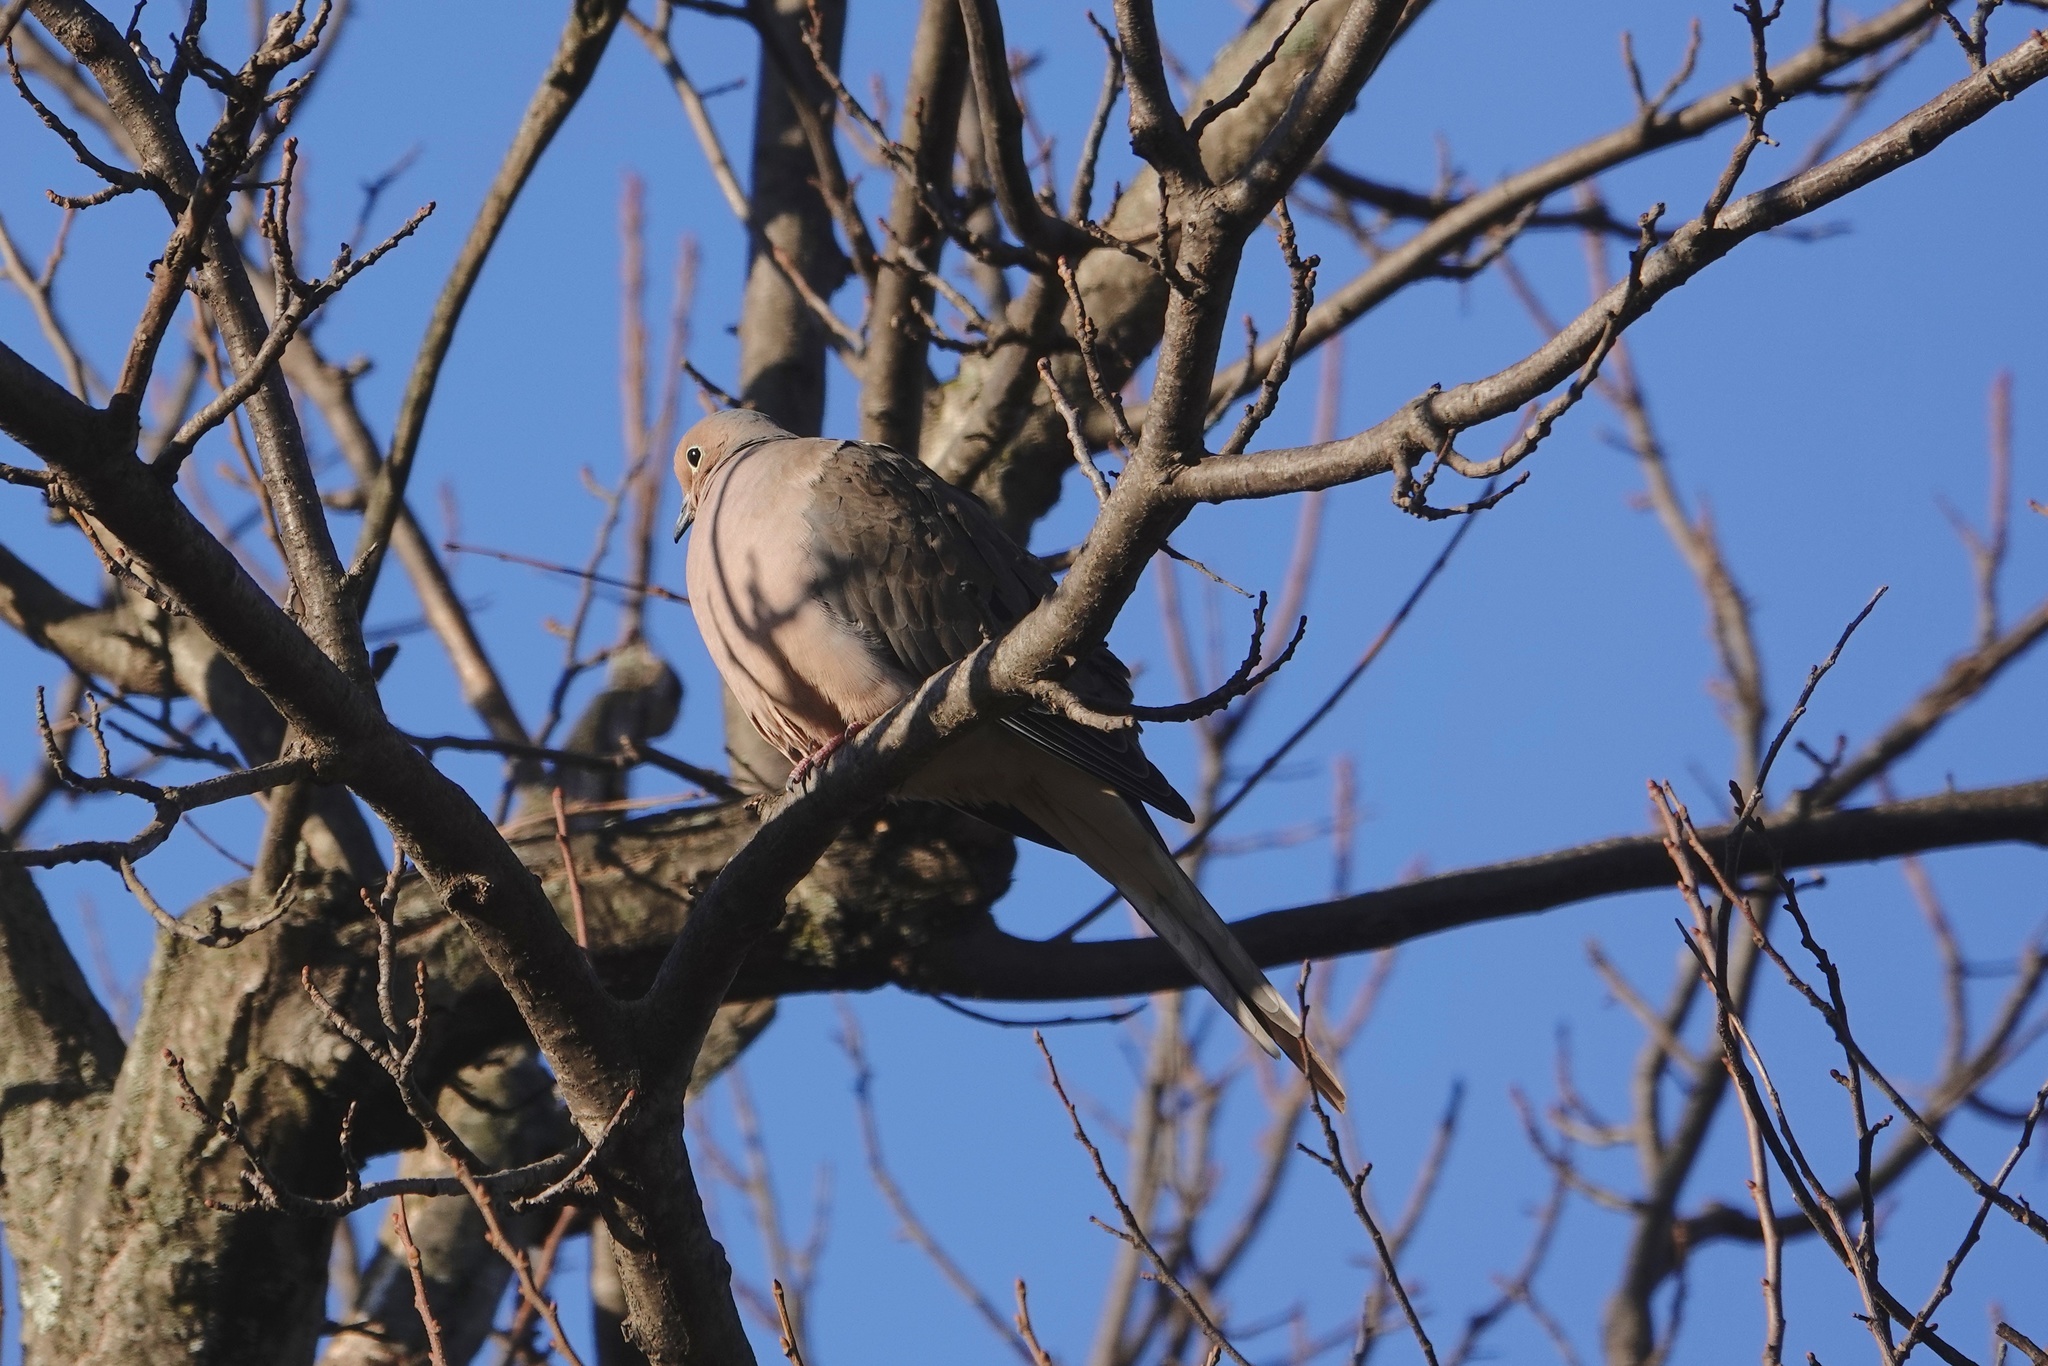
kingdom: Animalia
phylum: Chordata
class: Aves
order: Columbiformes
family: Columbidae
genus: Zenaida
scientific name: Zenaida macroura
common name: Mourning dove
